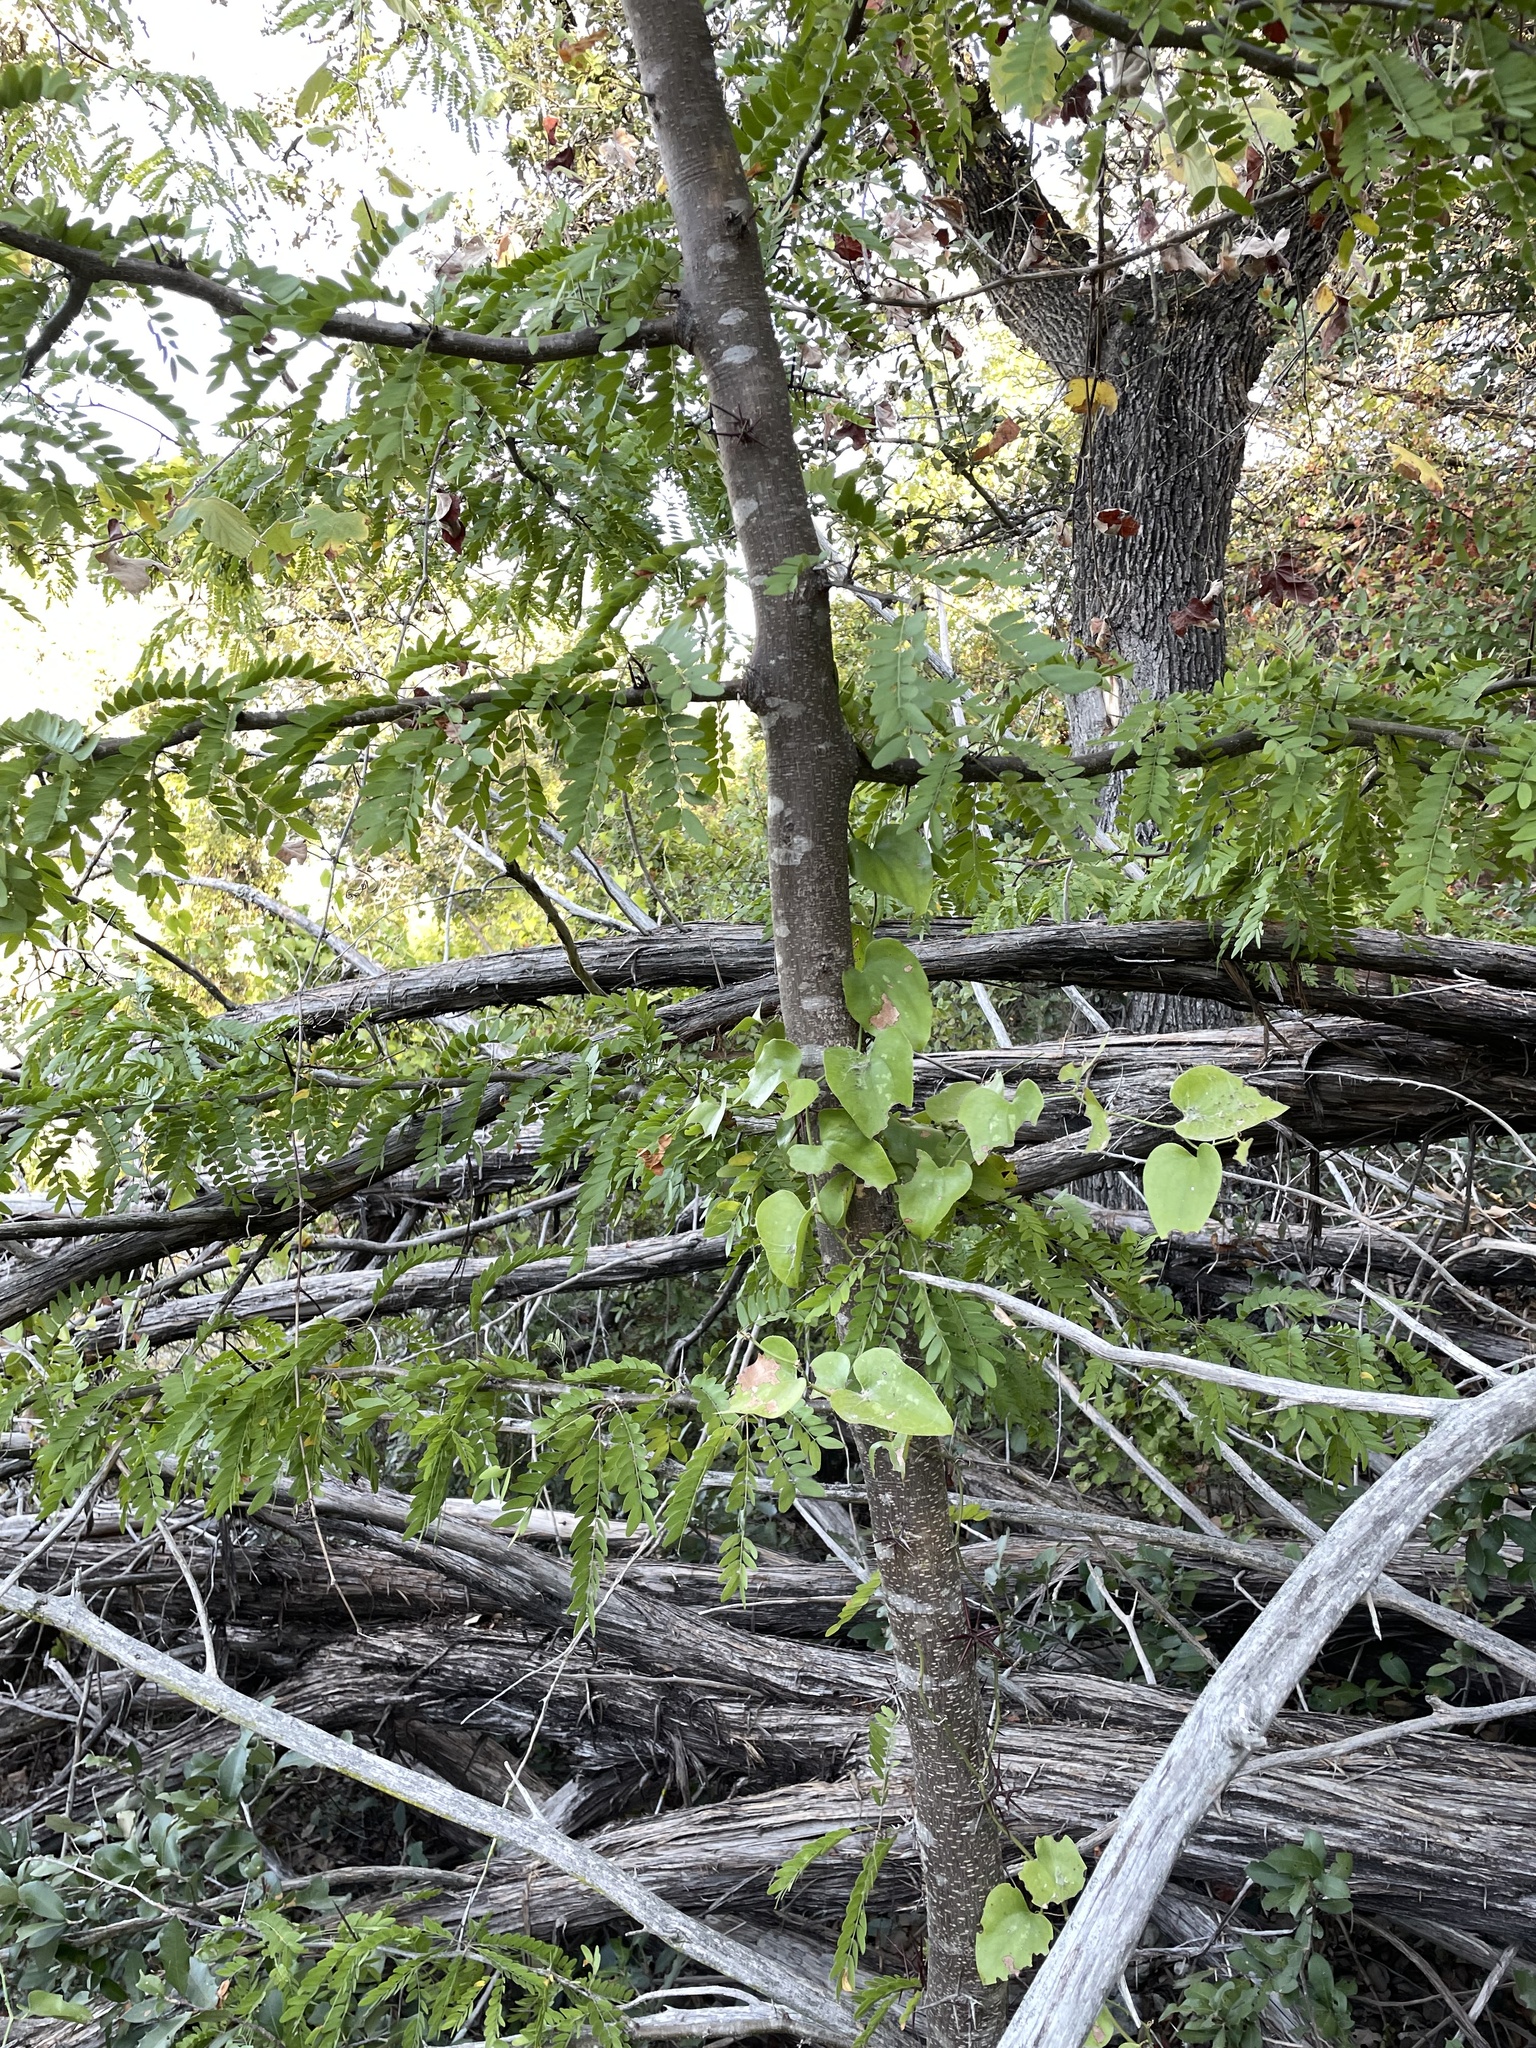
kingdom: Plantae
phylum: Tracheophyta
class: Magnoliopsida
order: Fabales
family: Fabaceae
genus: Gleditsia
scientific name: Gleditsia triacanthos
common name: Common honeylocust
